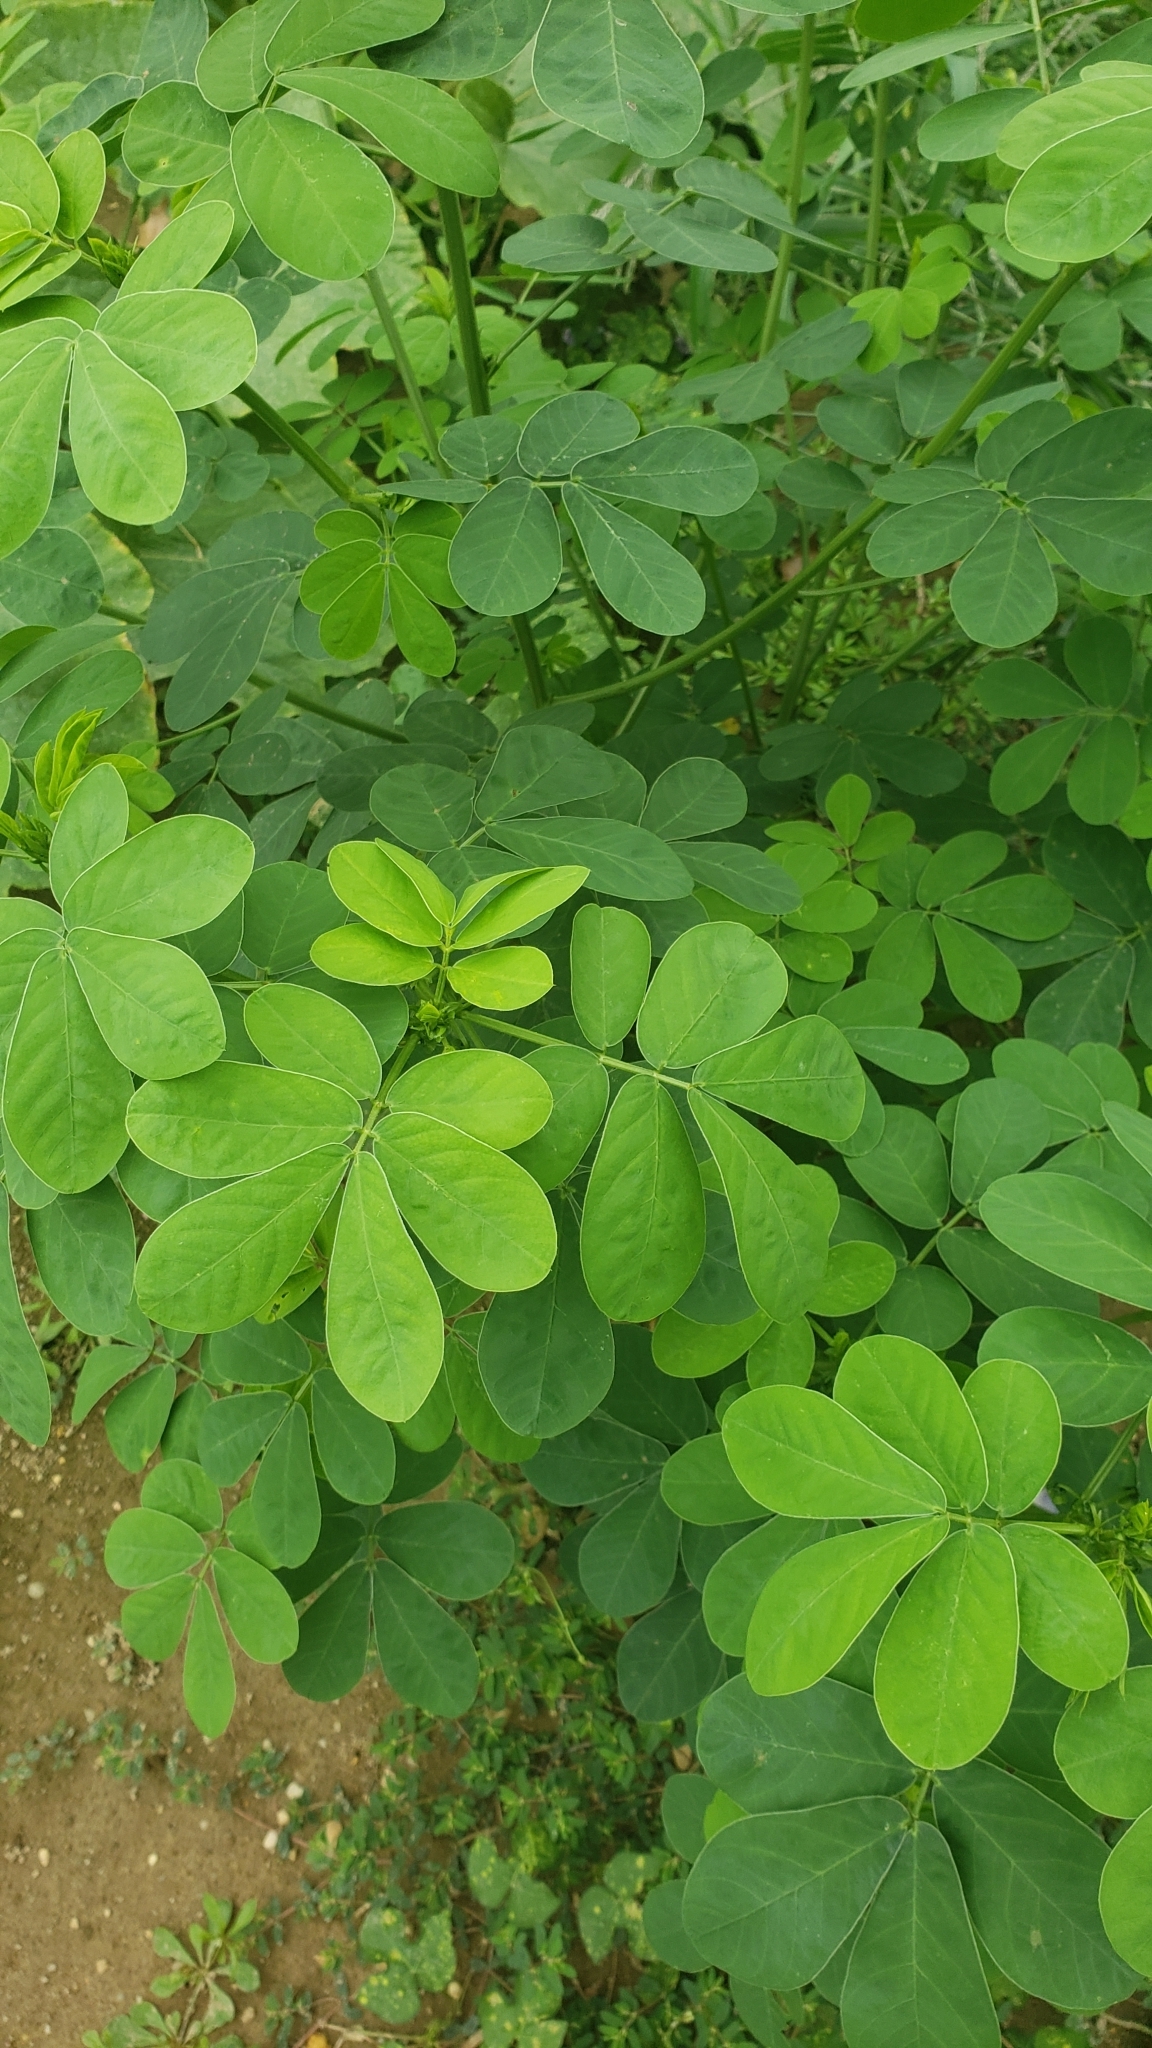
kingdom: Plantae
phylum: Tracheophyta
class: Magnoliopsida
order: Fabales
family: Fabaceae
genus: Senna
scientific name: Senna obtusifolia
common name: Java-bean
